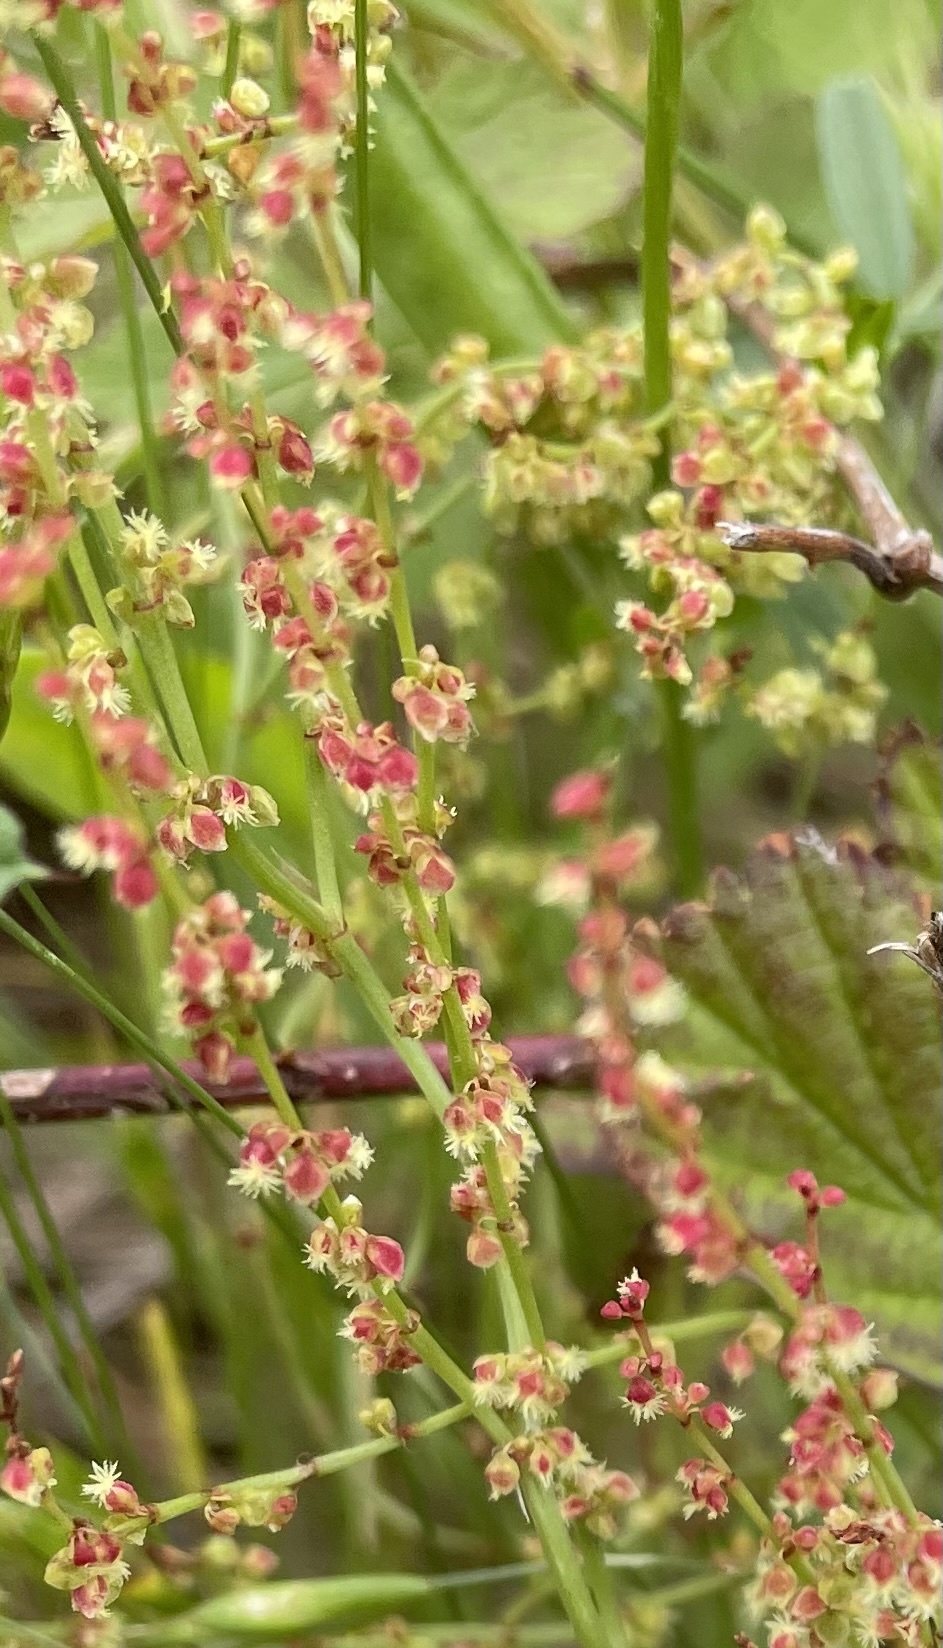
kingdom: Plantae
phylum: Tracheophyta
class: Magnoliopsida
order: Caryophyllales
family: Polygonaceae
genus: Rumex
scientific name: Rumex acetosella
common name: Common sheep sorrel
